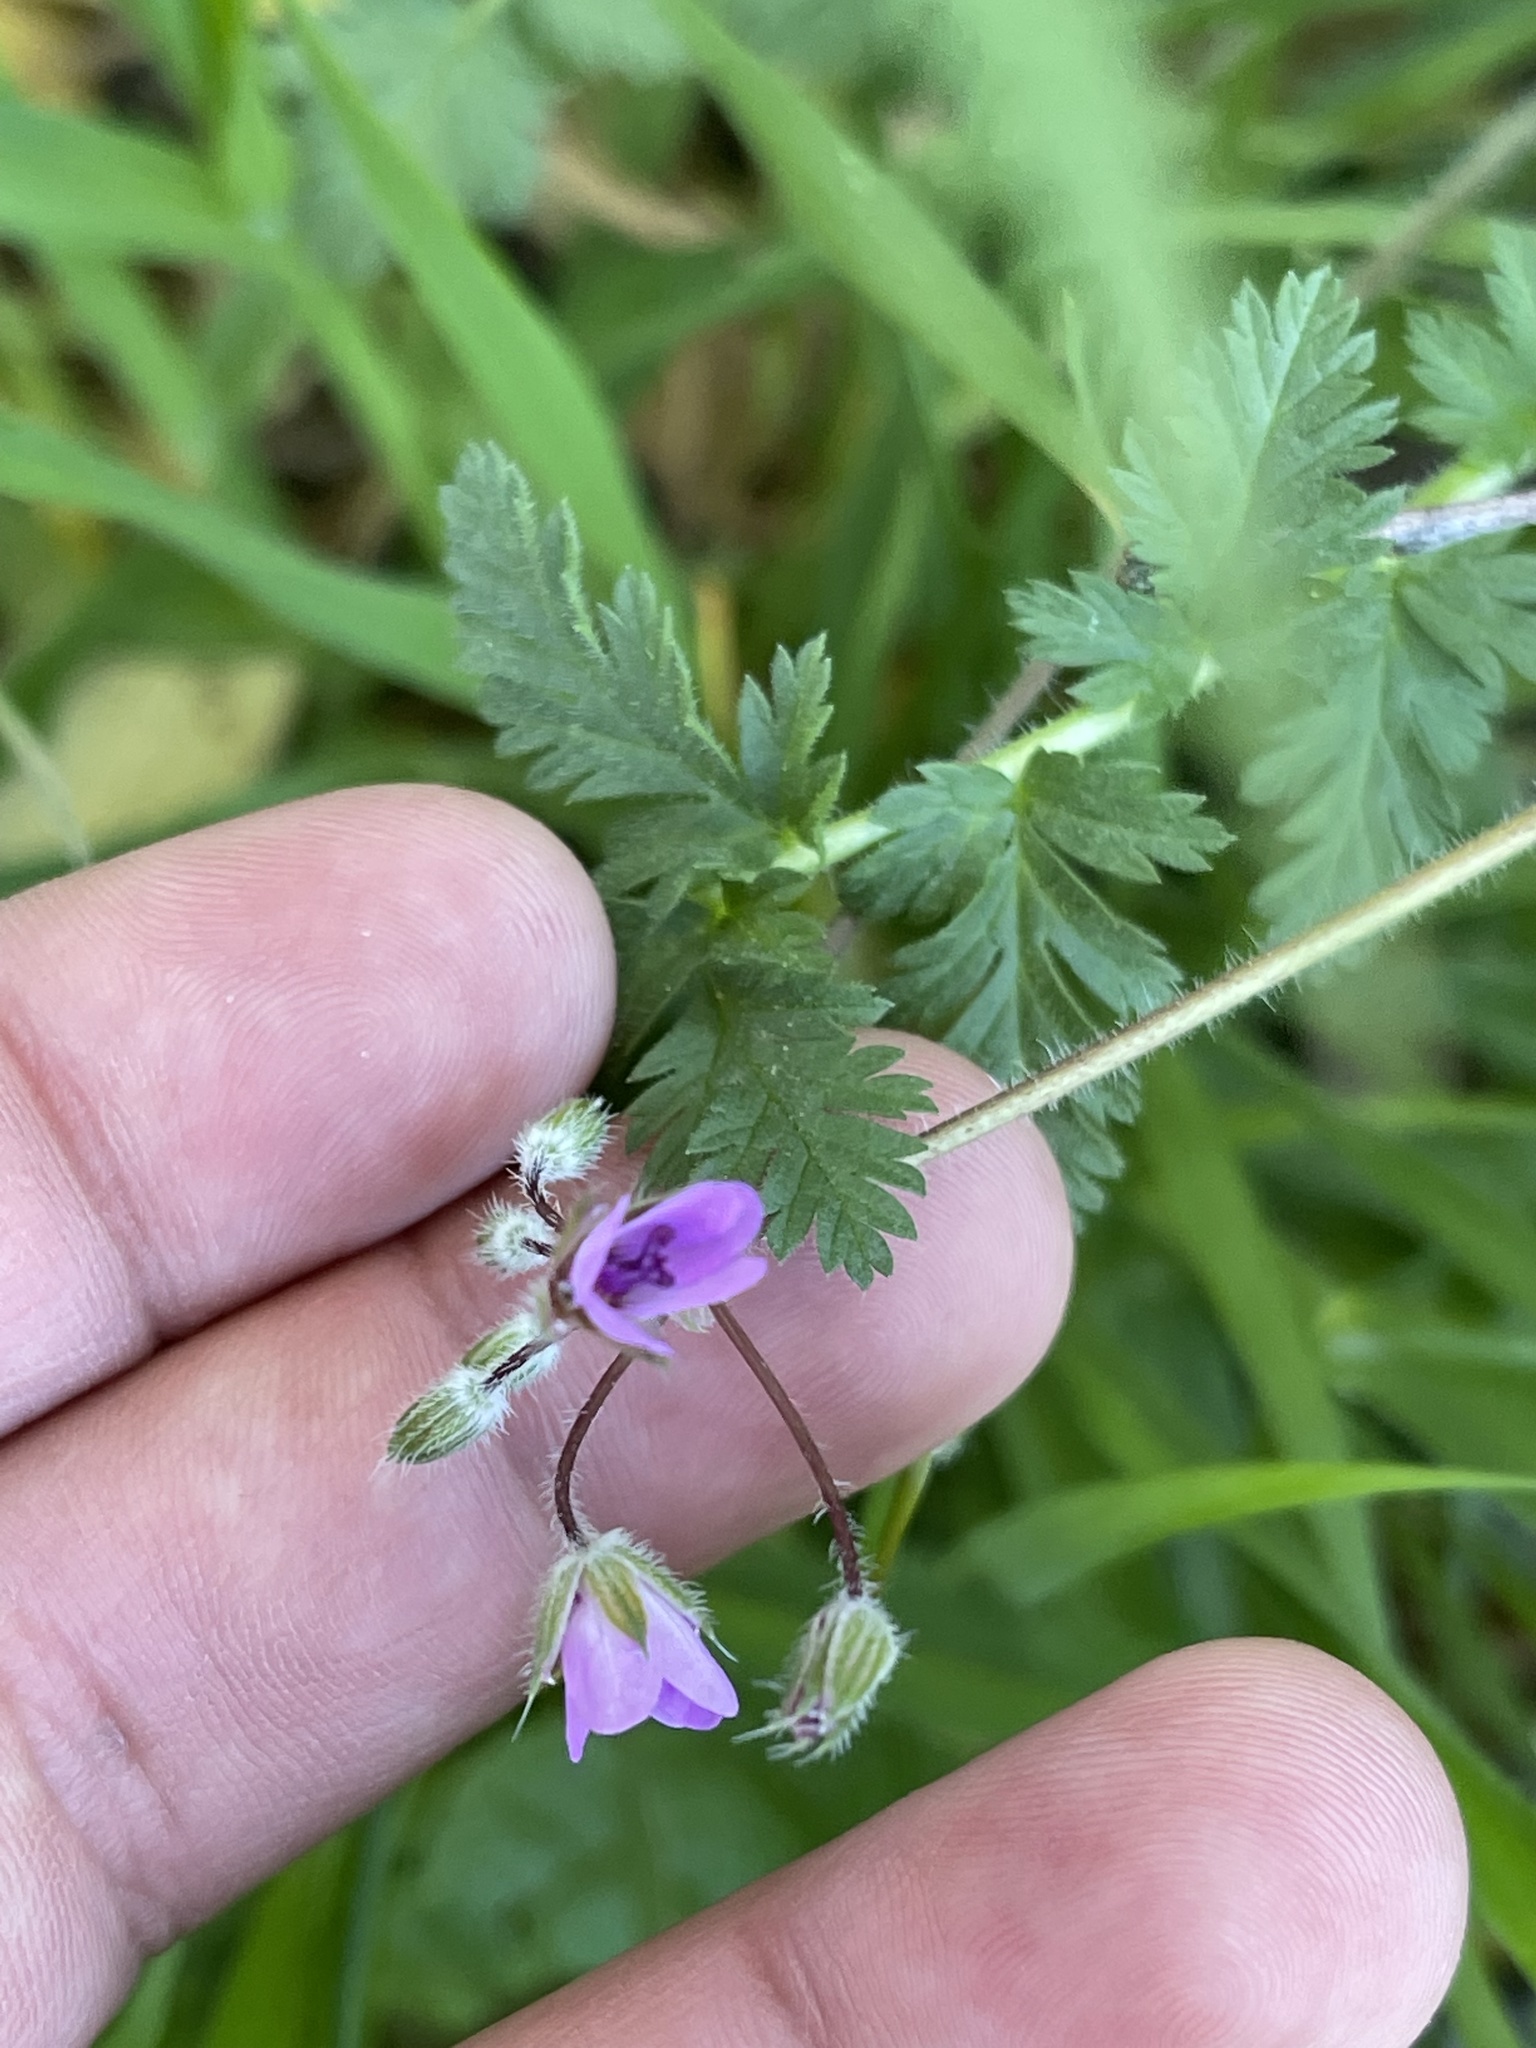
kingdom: Plantae
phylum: Tracheophyta
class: Magnoliopsida
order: Geraniales
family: Geraniaceae
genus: Erodium
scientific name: Erodium cicutarium
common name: Common stork's-bill
